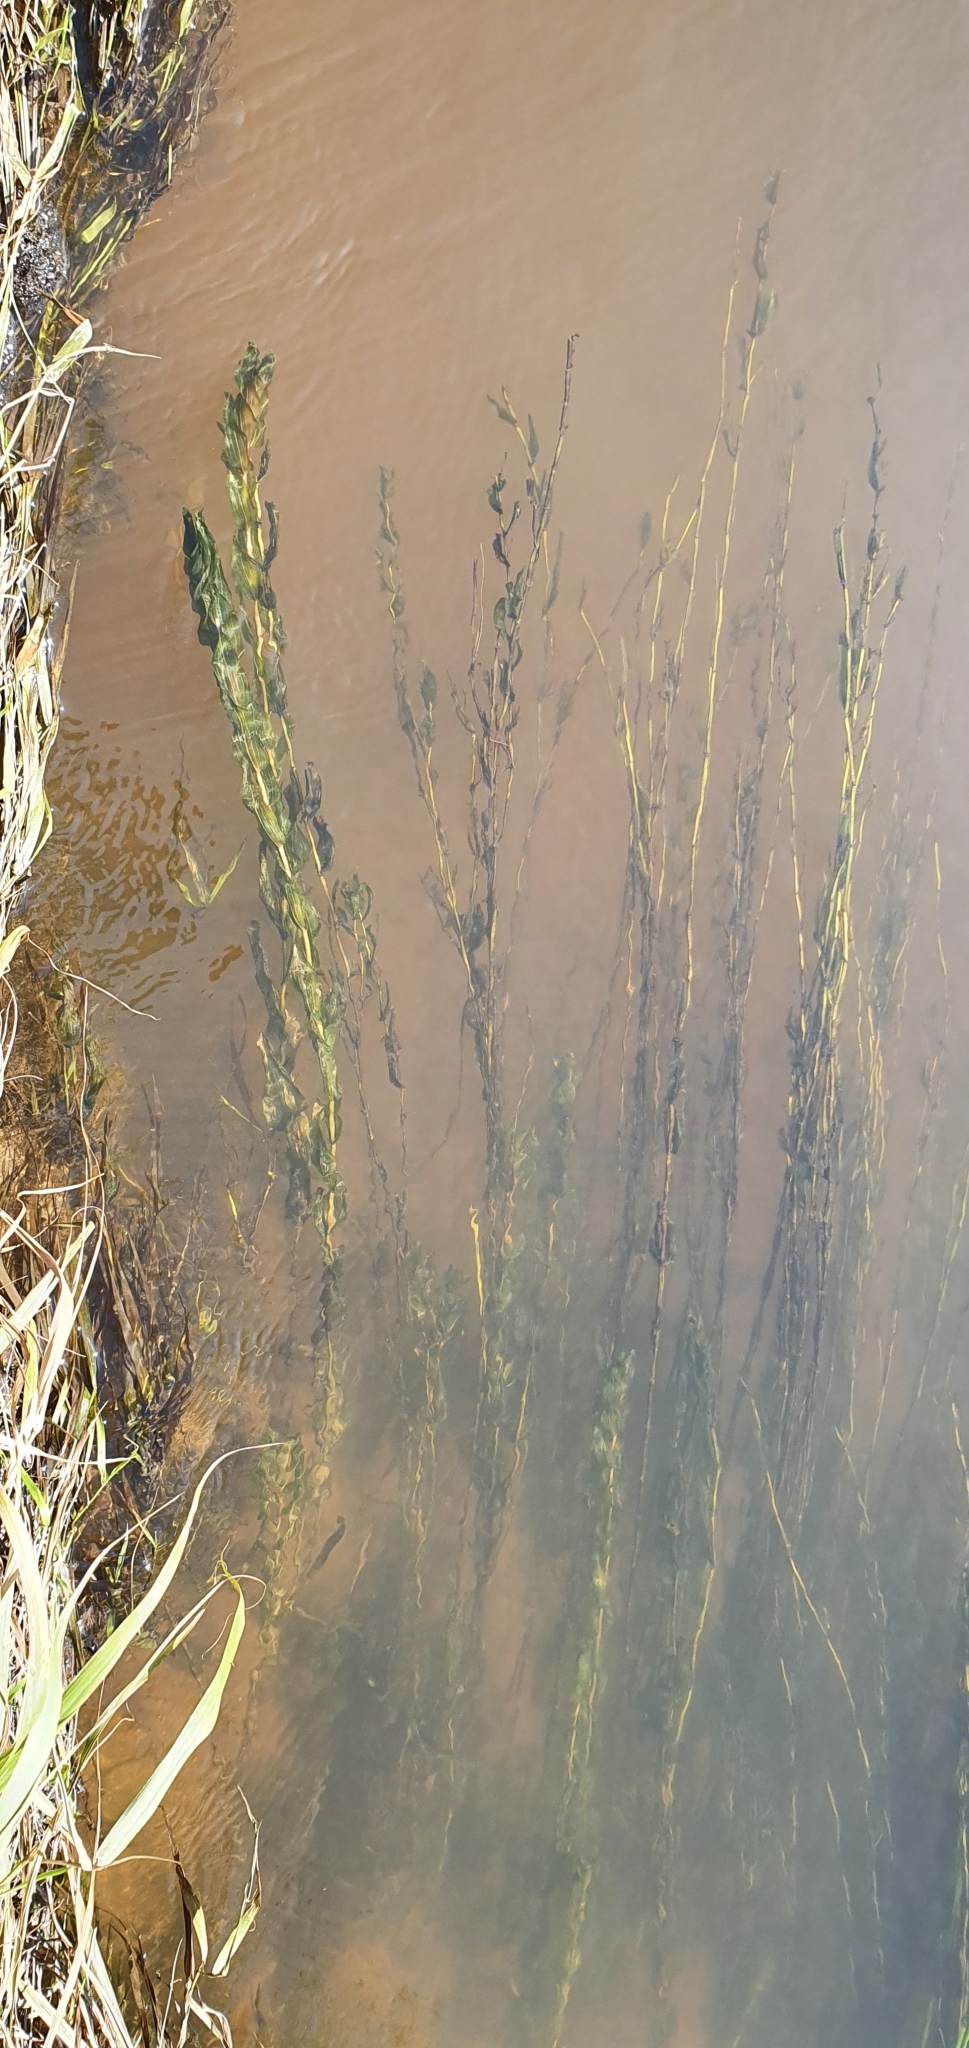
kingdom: Plantae
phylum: Tracheophyta
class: Liliopsida
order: Alismatales
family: Potamogetonaceae
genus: Potamogeton
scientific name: Potamogeton perfoliatus
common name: Perfoliate pondweed
